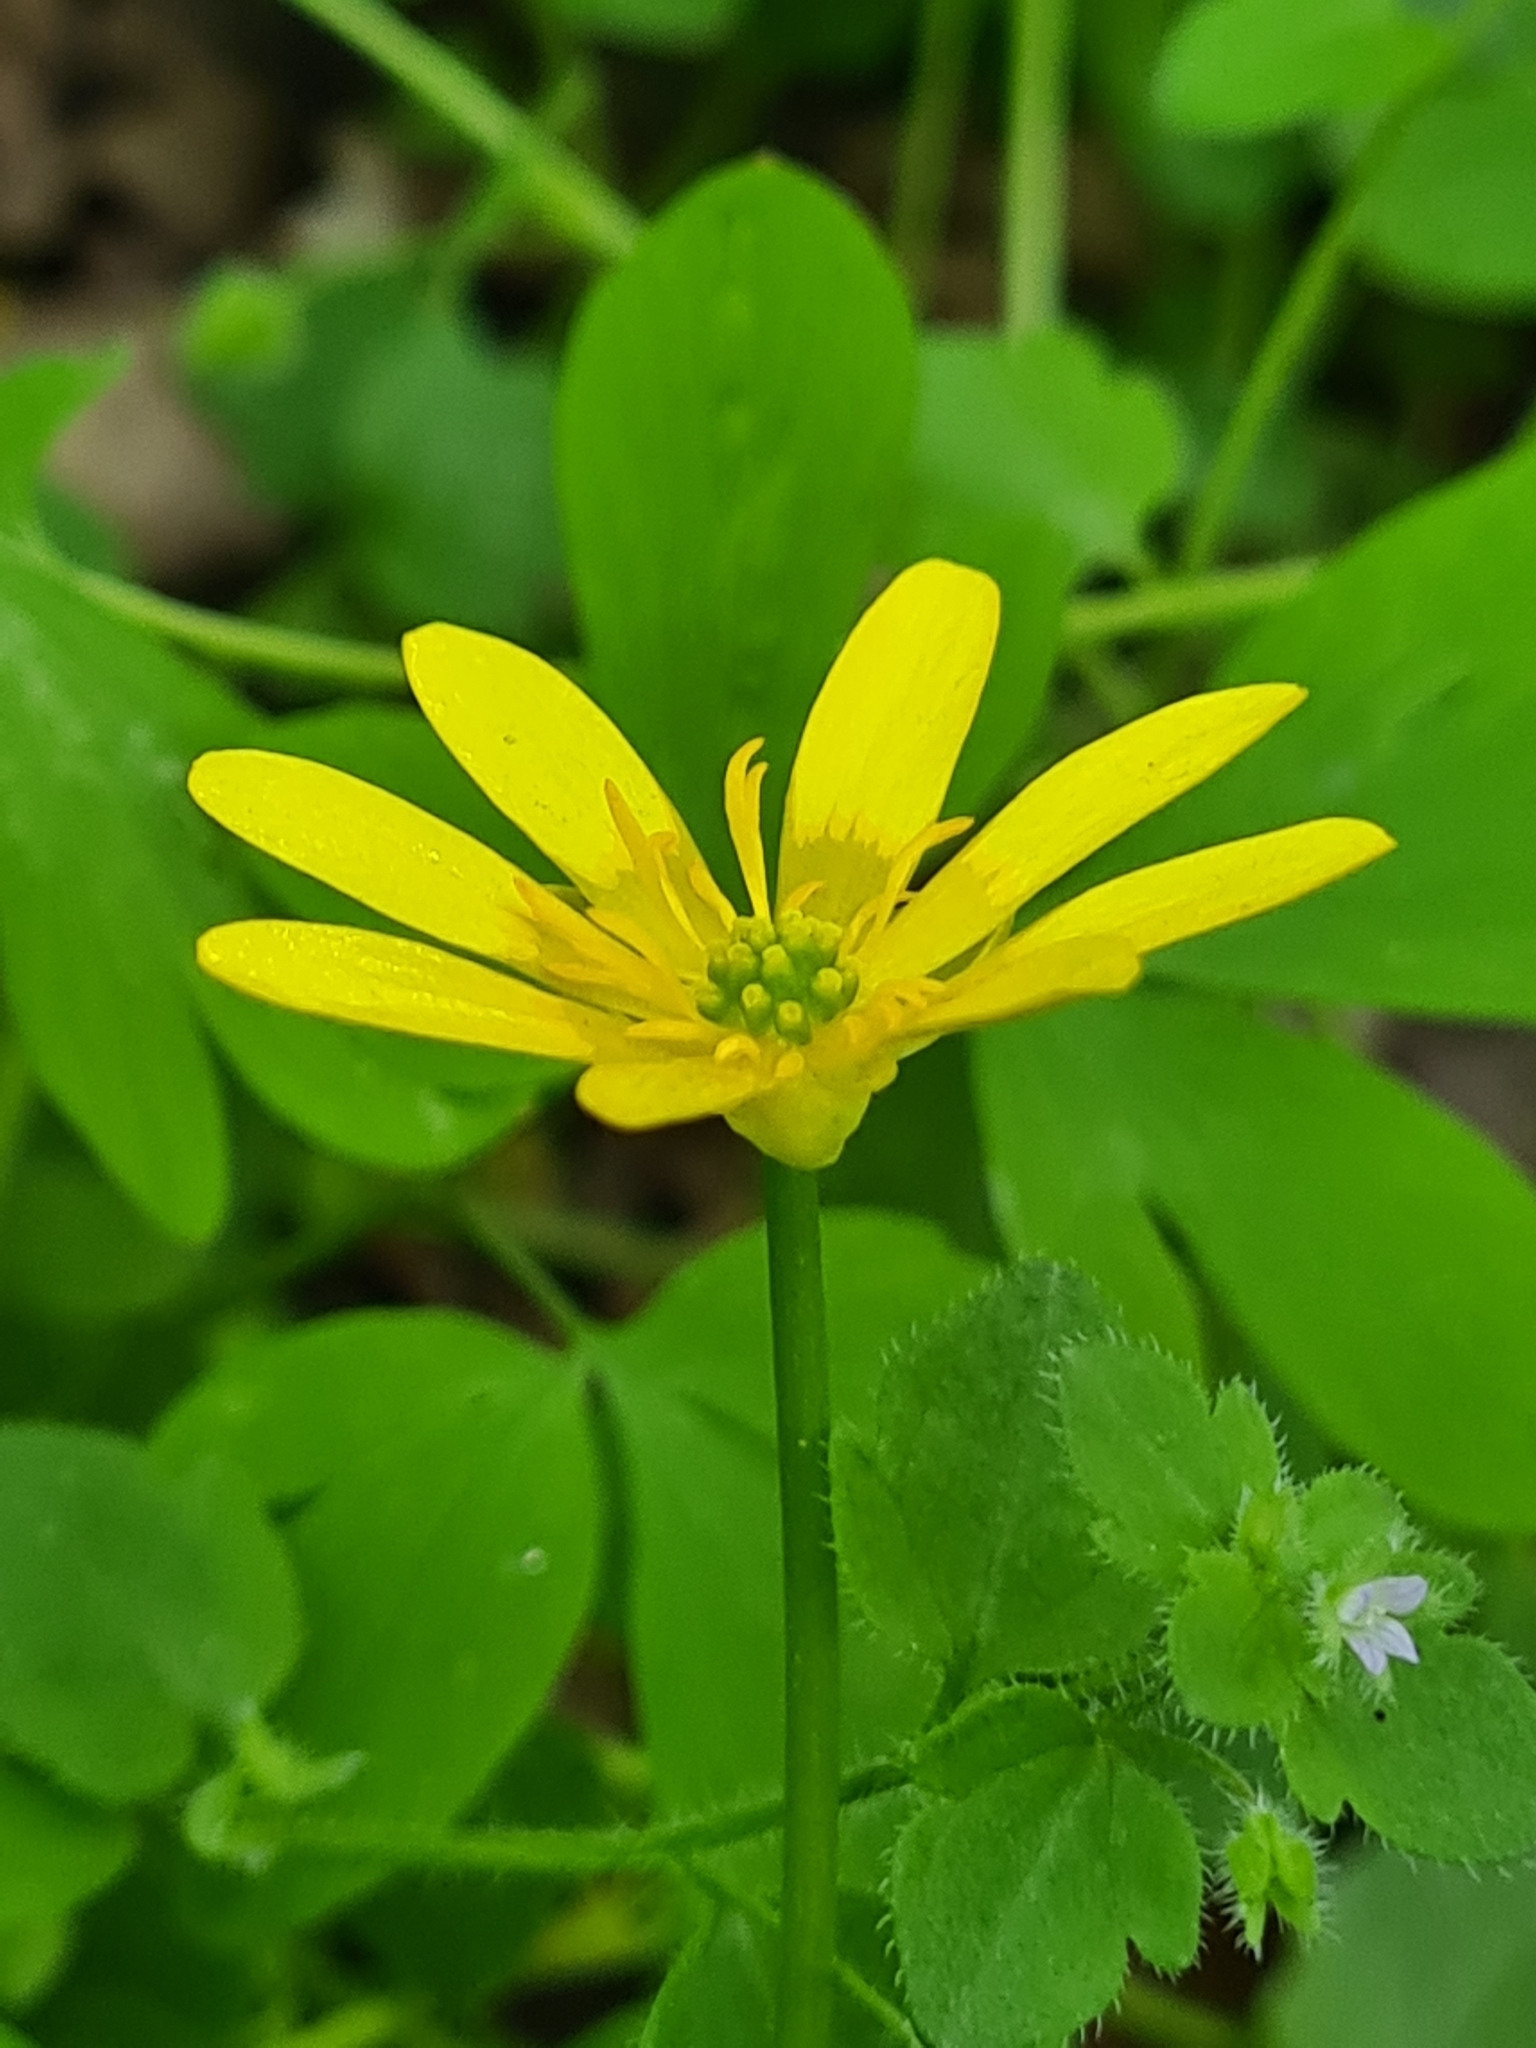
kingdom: Plantae
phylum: Tracheophyta
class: Magnoliopsida
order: Ranunculales
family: Ranunculaceae
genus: Ficaria
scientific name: Ficaria verna
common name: Lesser celandine
